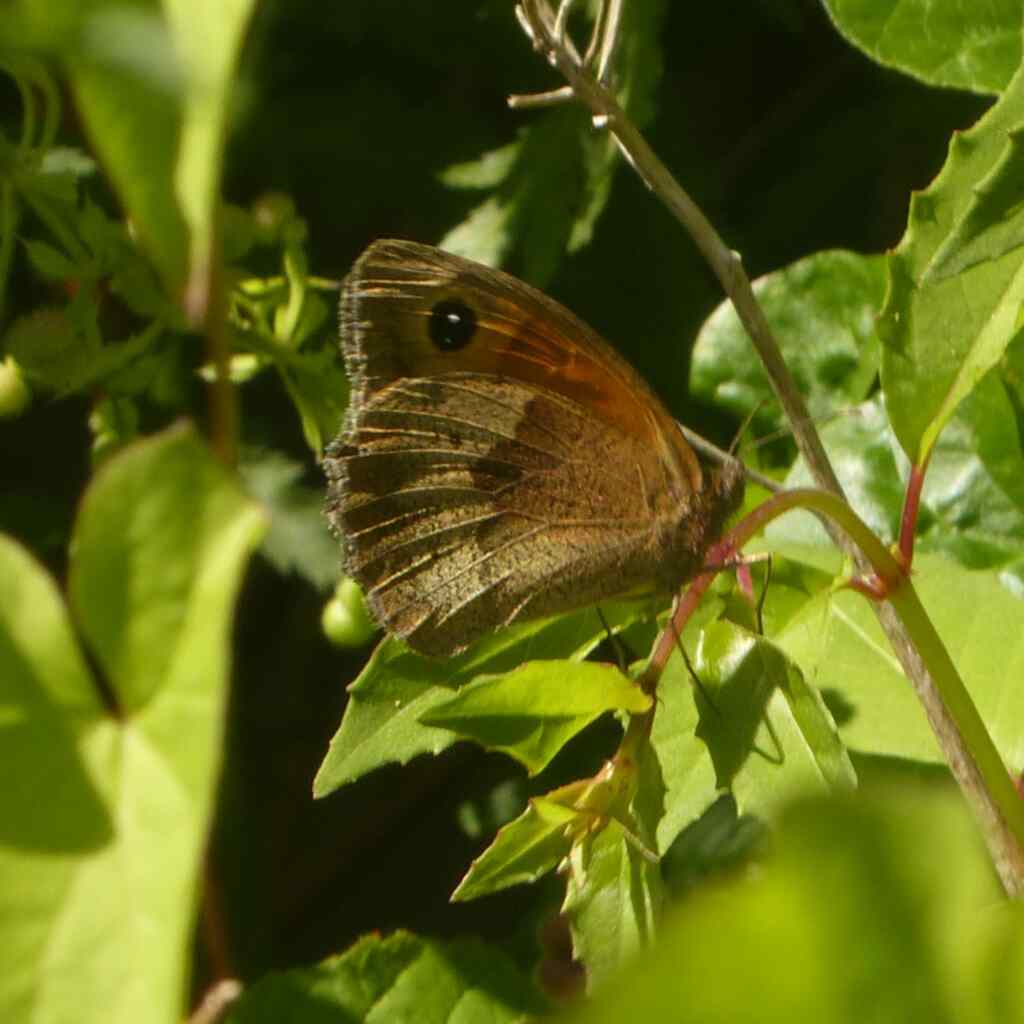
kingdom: Animalia
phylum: Arthropoda
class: Insecta
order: Lepidoptera
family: Nymphalidae
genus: Maniola
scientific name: Maniola jurtina
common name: Meadow brown
